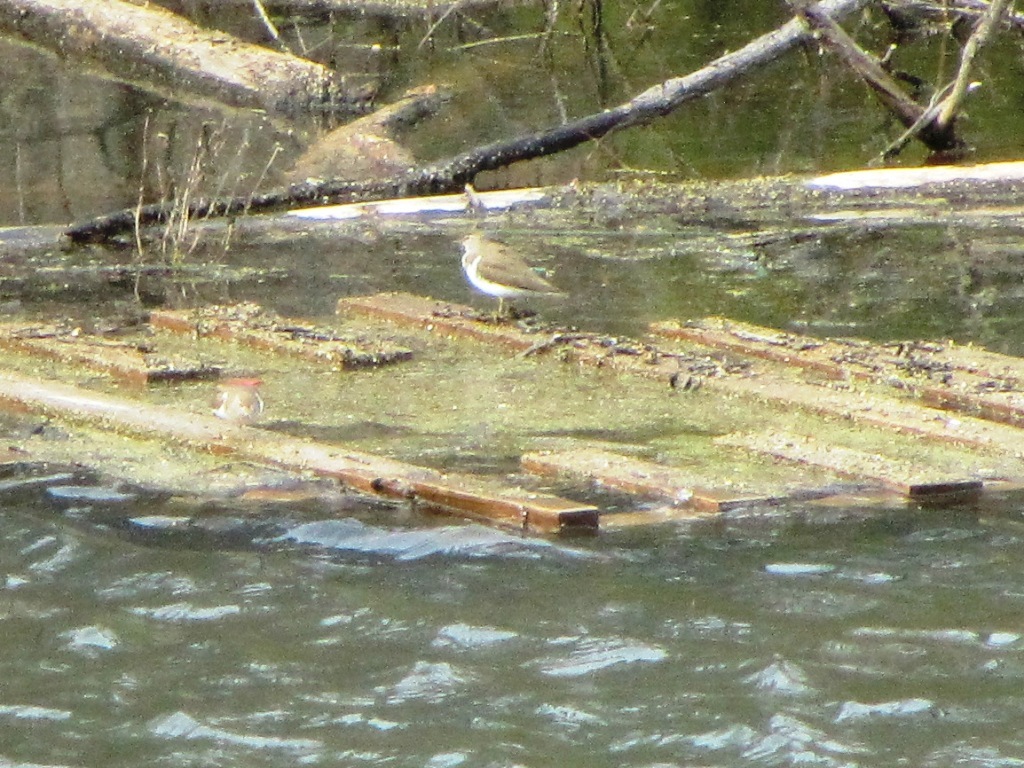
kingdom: Animalia
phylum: Chordata
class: Aves
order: Charadriiformes
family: Scolopacidae
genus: Actitis
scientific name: Actitis hypoleucos
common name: Common sandpiper
